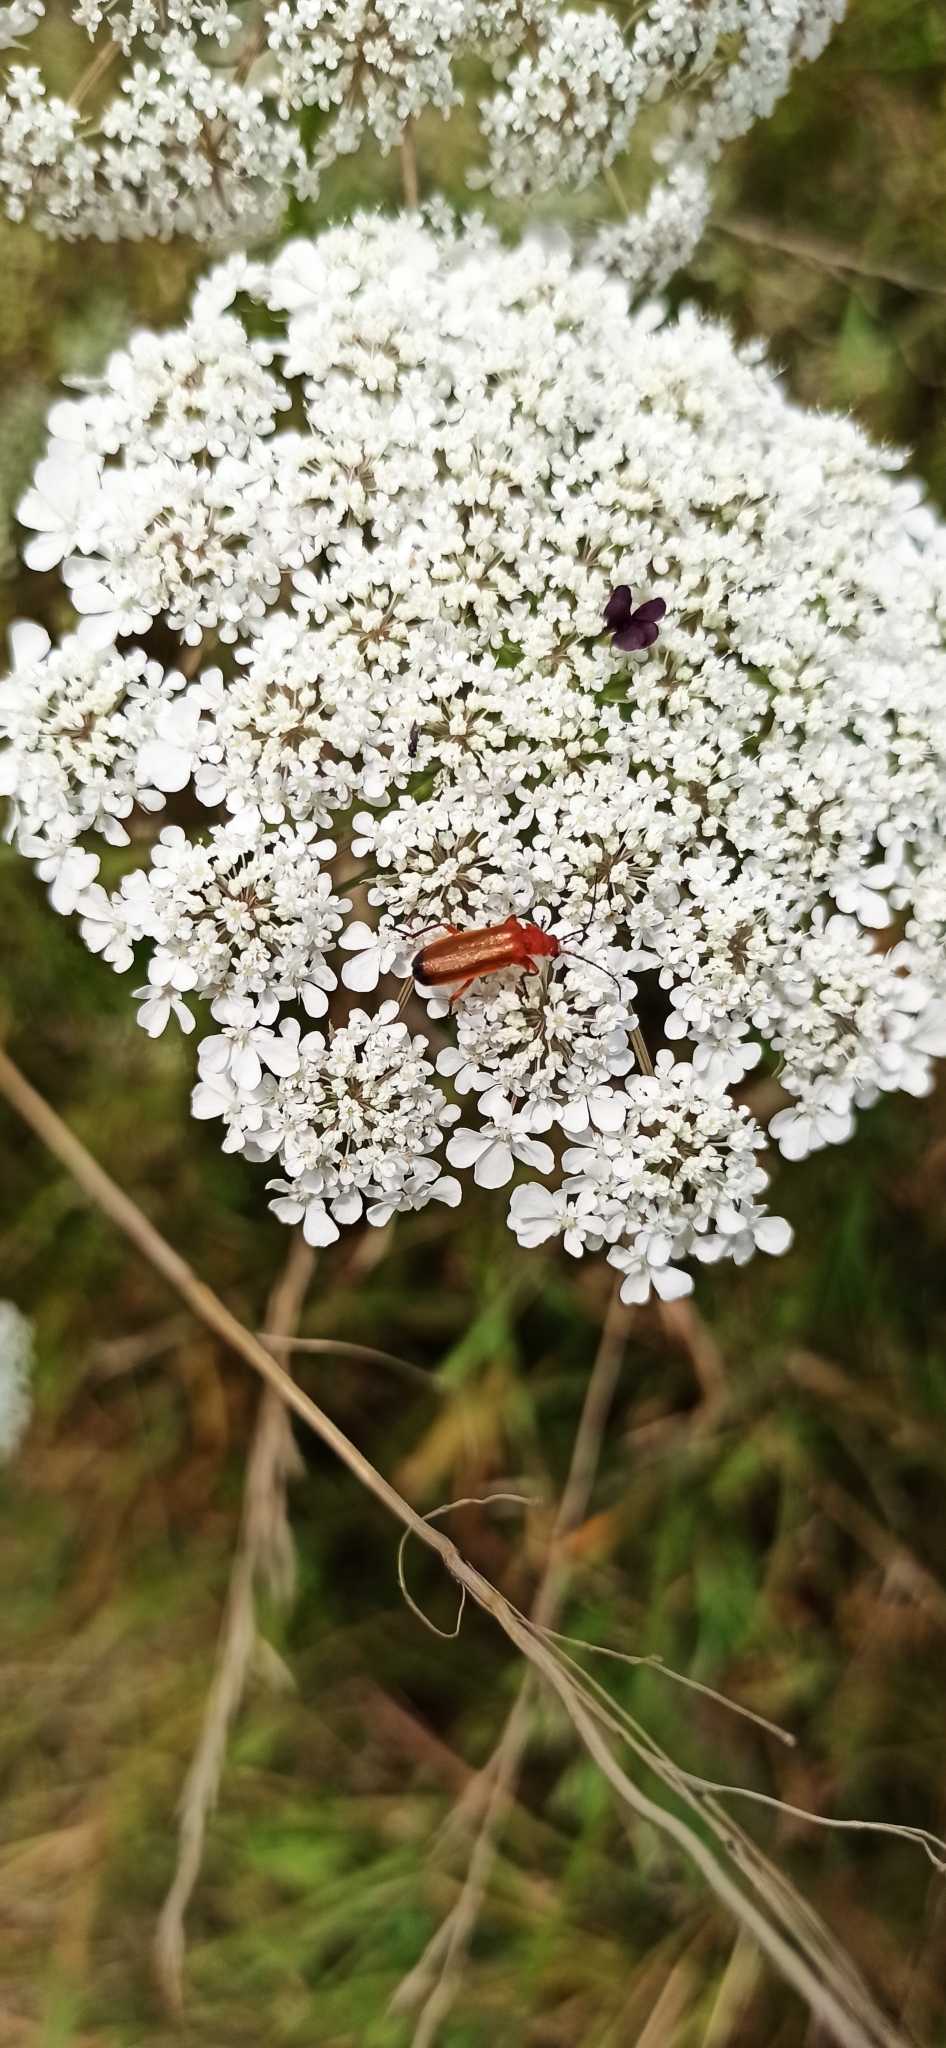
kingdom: Animalia
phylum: Arthropoda
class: Insecta
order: Coleoptera
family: Cantharidae
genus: Rhagonycha
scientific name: Rhagonycha fulva
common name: Common red soldier beetle
